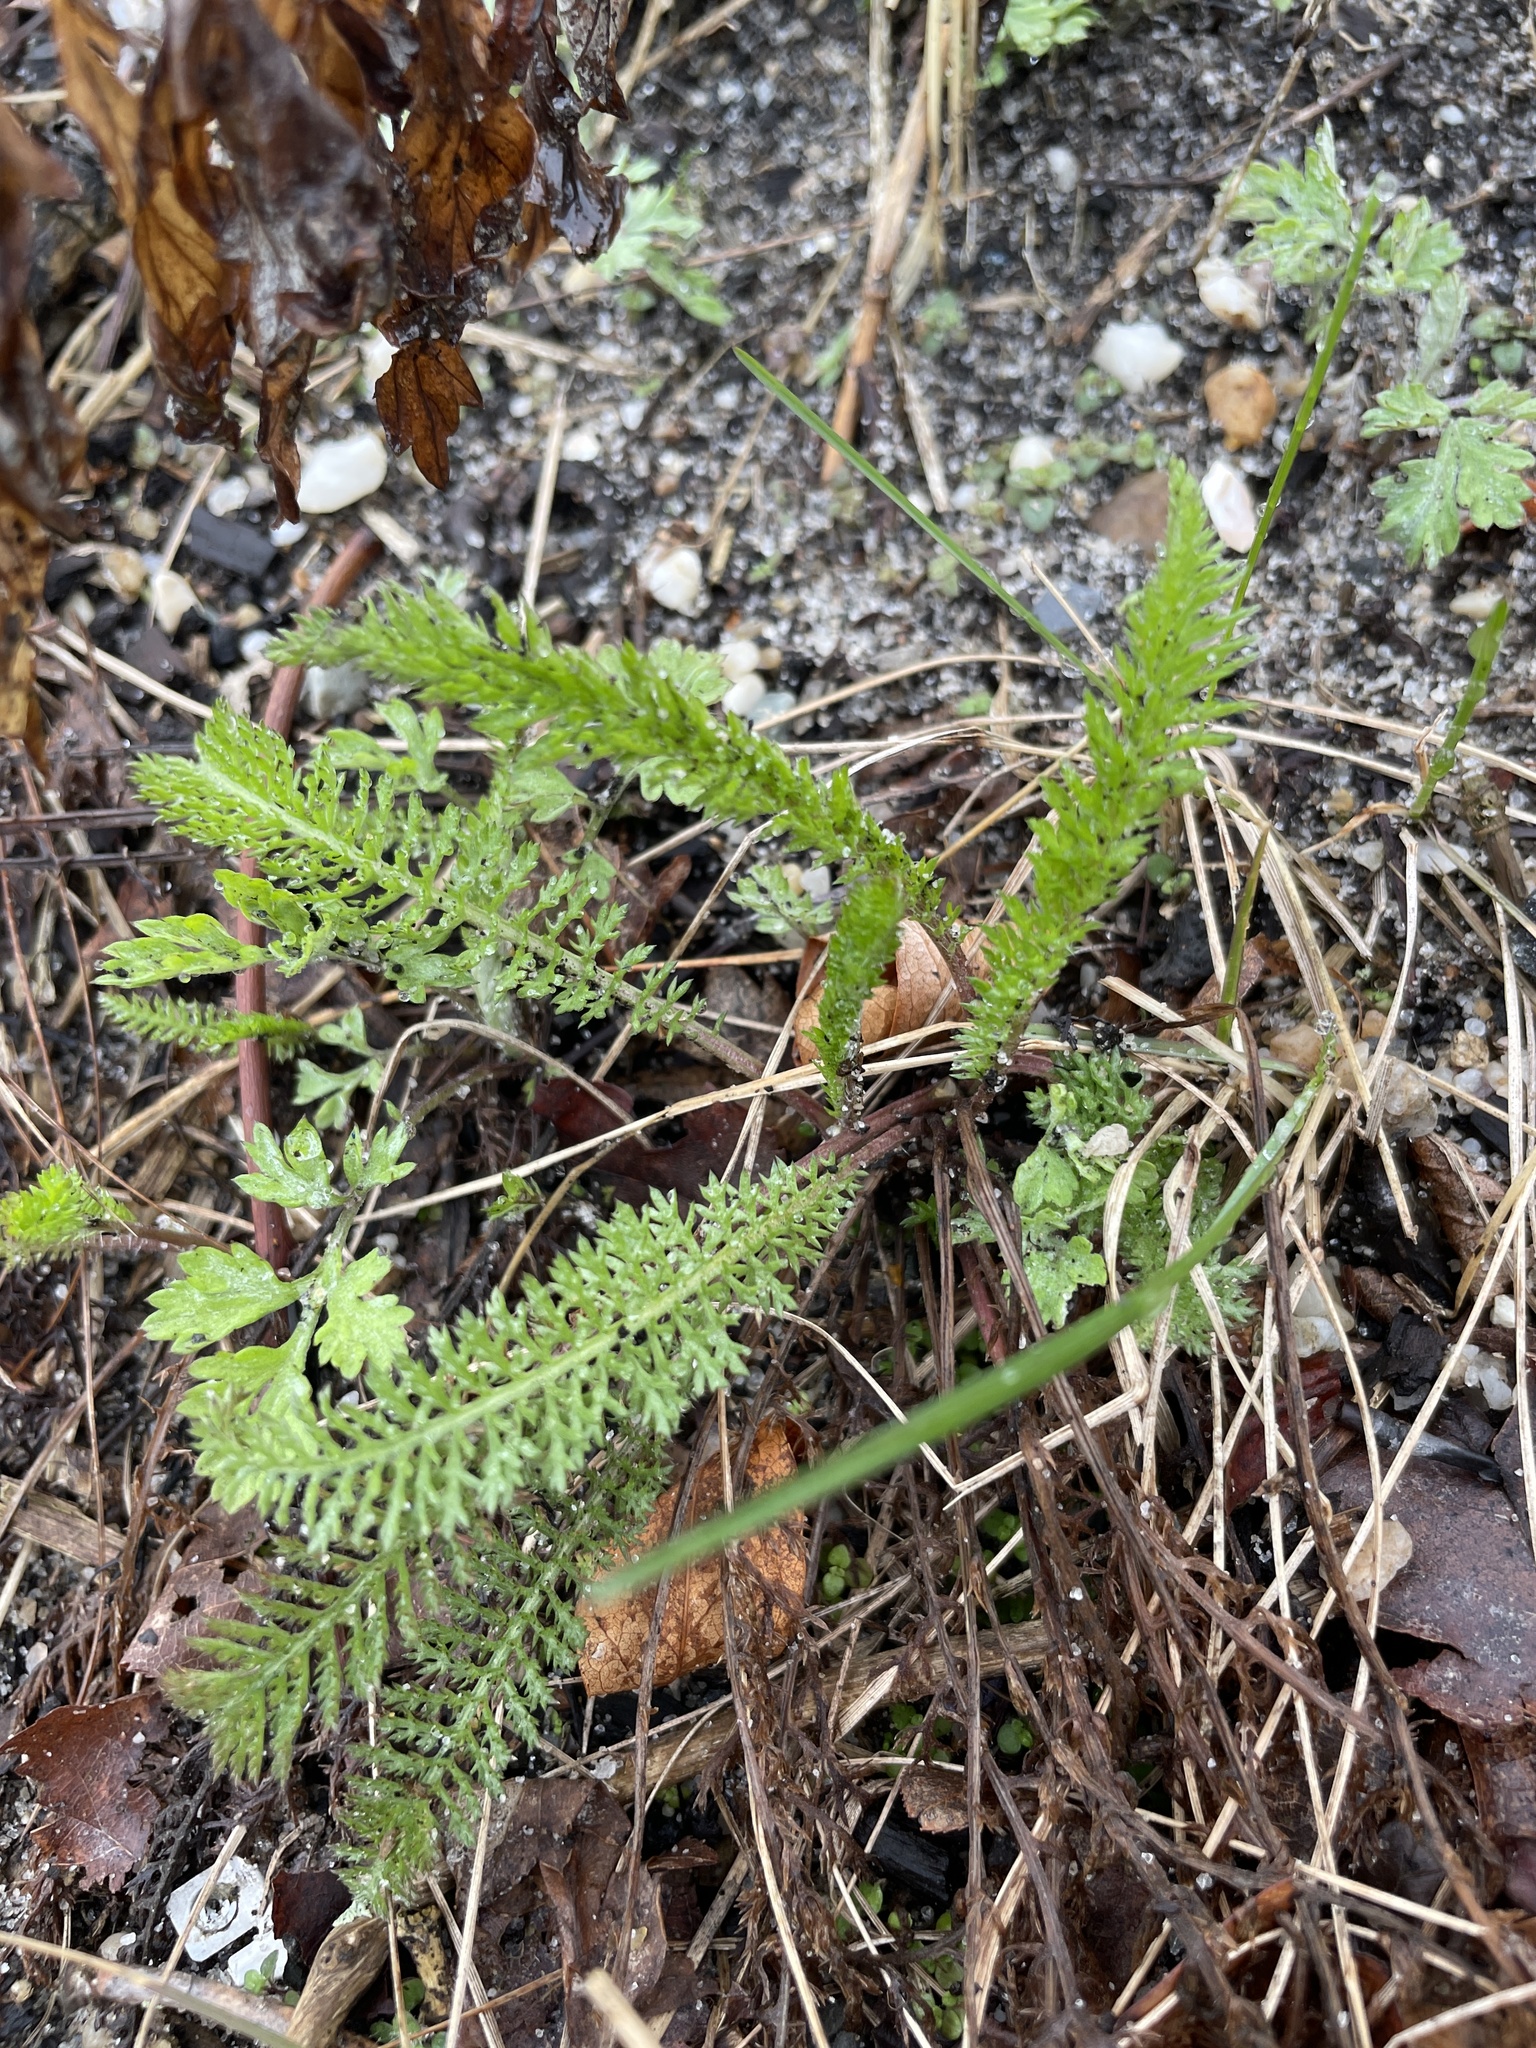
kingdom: Plantae
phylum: Tracheophyta
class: Magnoliopsida
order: Asterales
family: Asteraceae
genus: Achillea
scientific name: Achillea millefolium
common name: Yarrow
